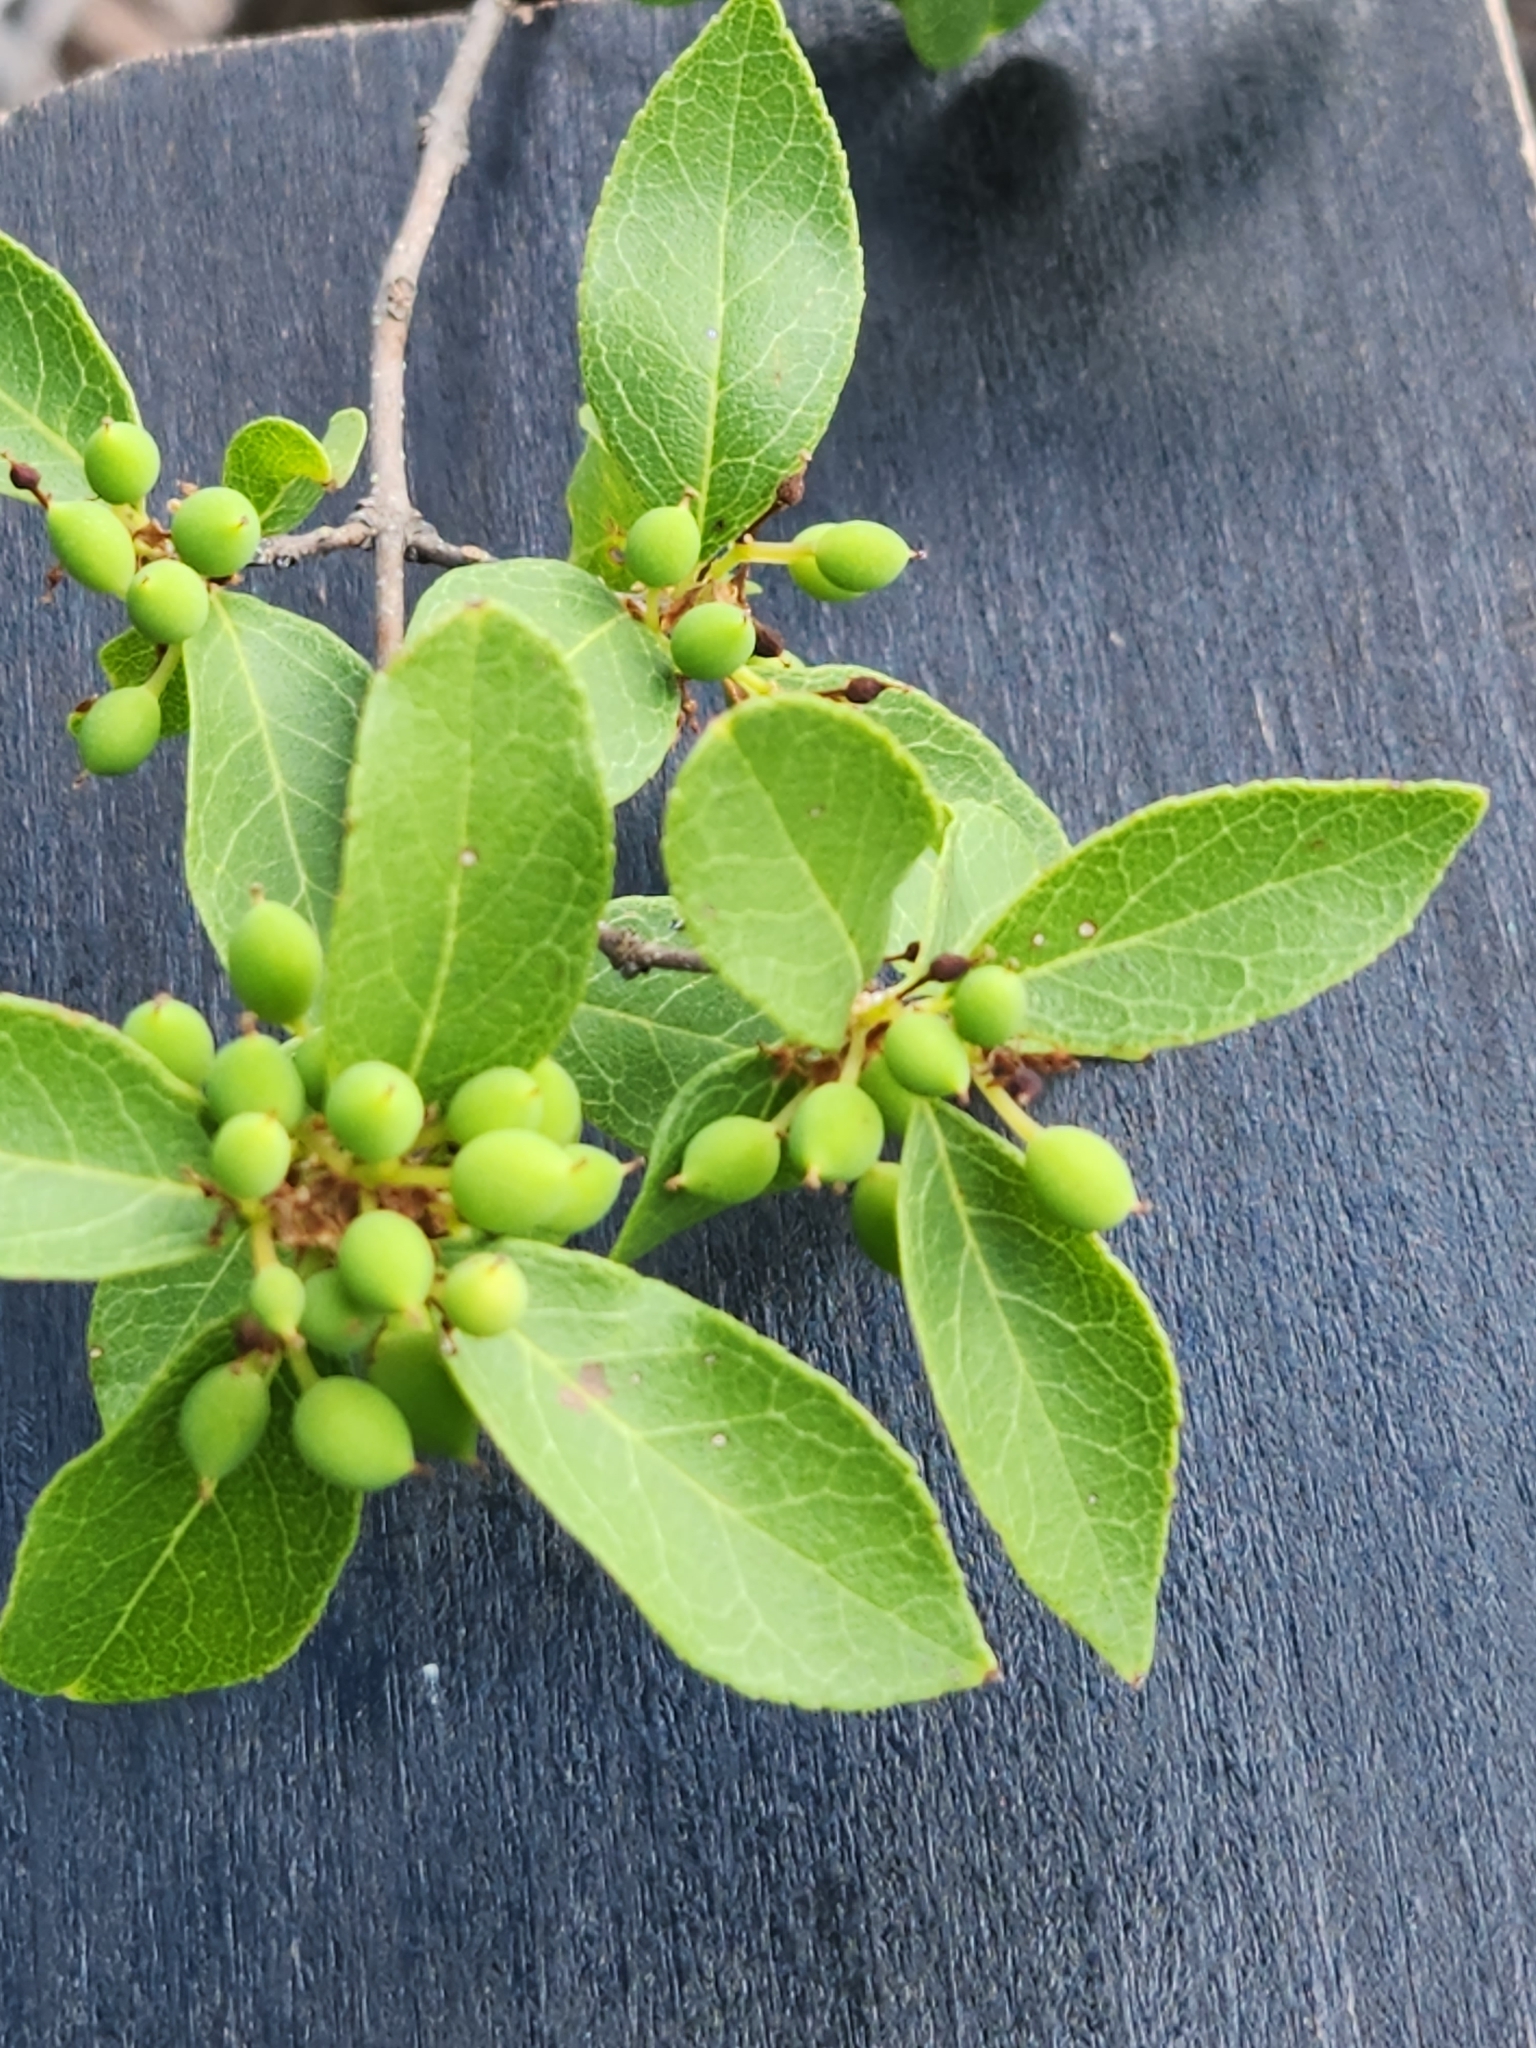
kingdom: Plantae
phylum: Tracheophyta
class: Magnoliopsida
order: Lamiales
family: Oleaceae
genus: Forestiera
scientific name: Forestiera reticulata
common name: Netleaf swamp-privet
